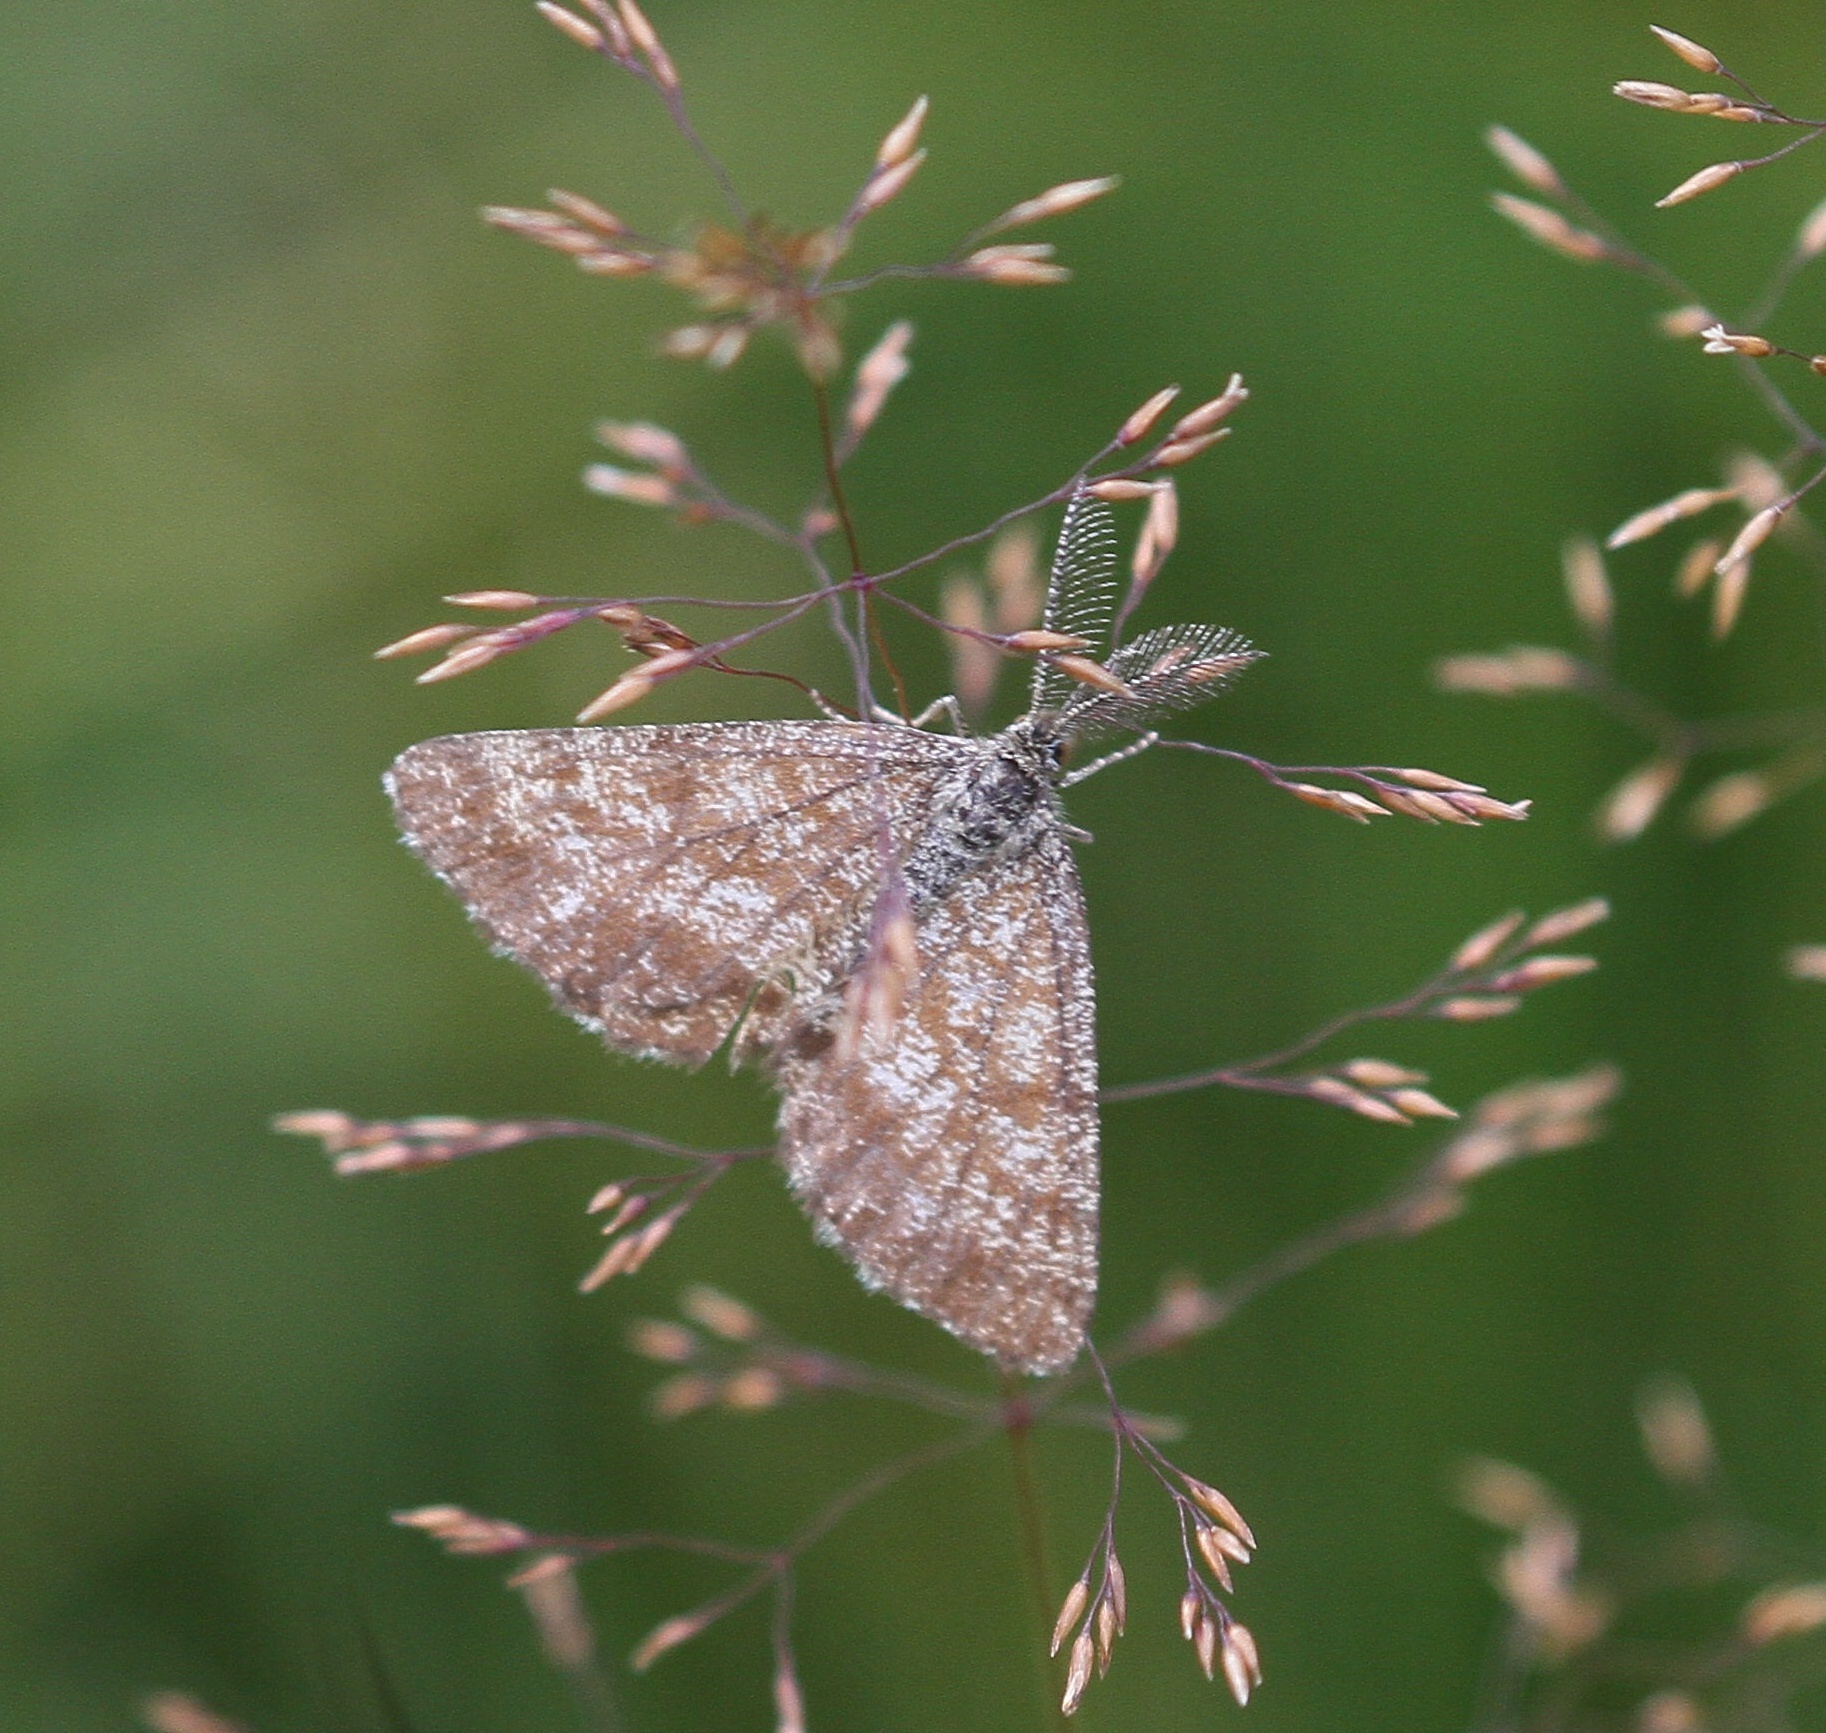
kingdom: Animalia
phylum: Arthropoda
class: Insecta
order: Lepidoptera
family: Geometridae
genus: Ematurga
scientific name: Ematurga atomaria
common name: Common heath
